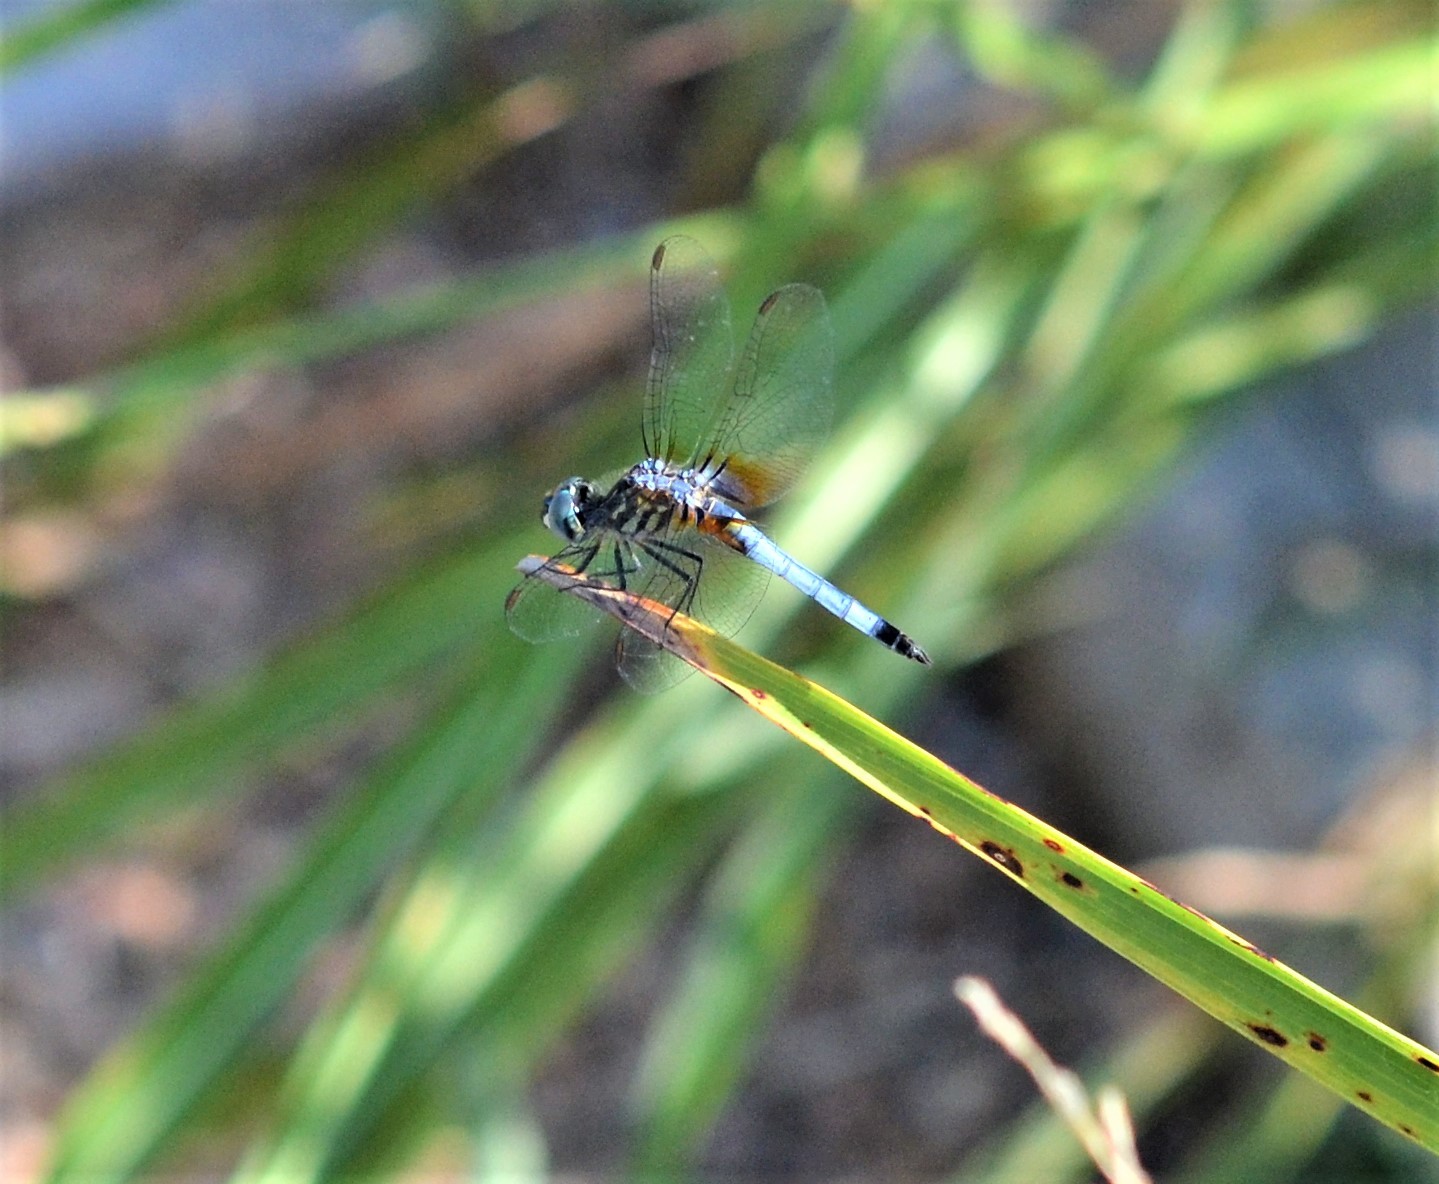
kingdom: Animalia
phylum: Arthropoda
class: Insecta
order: Odonata
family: Libellulidae
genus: Pachydiplax
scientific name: Pachydiplax longipennis
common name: Blue dasher
